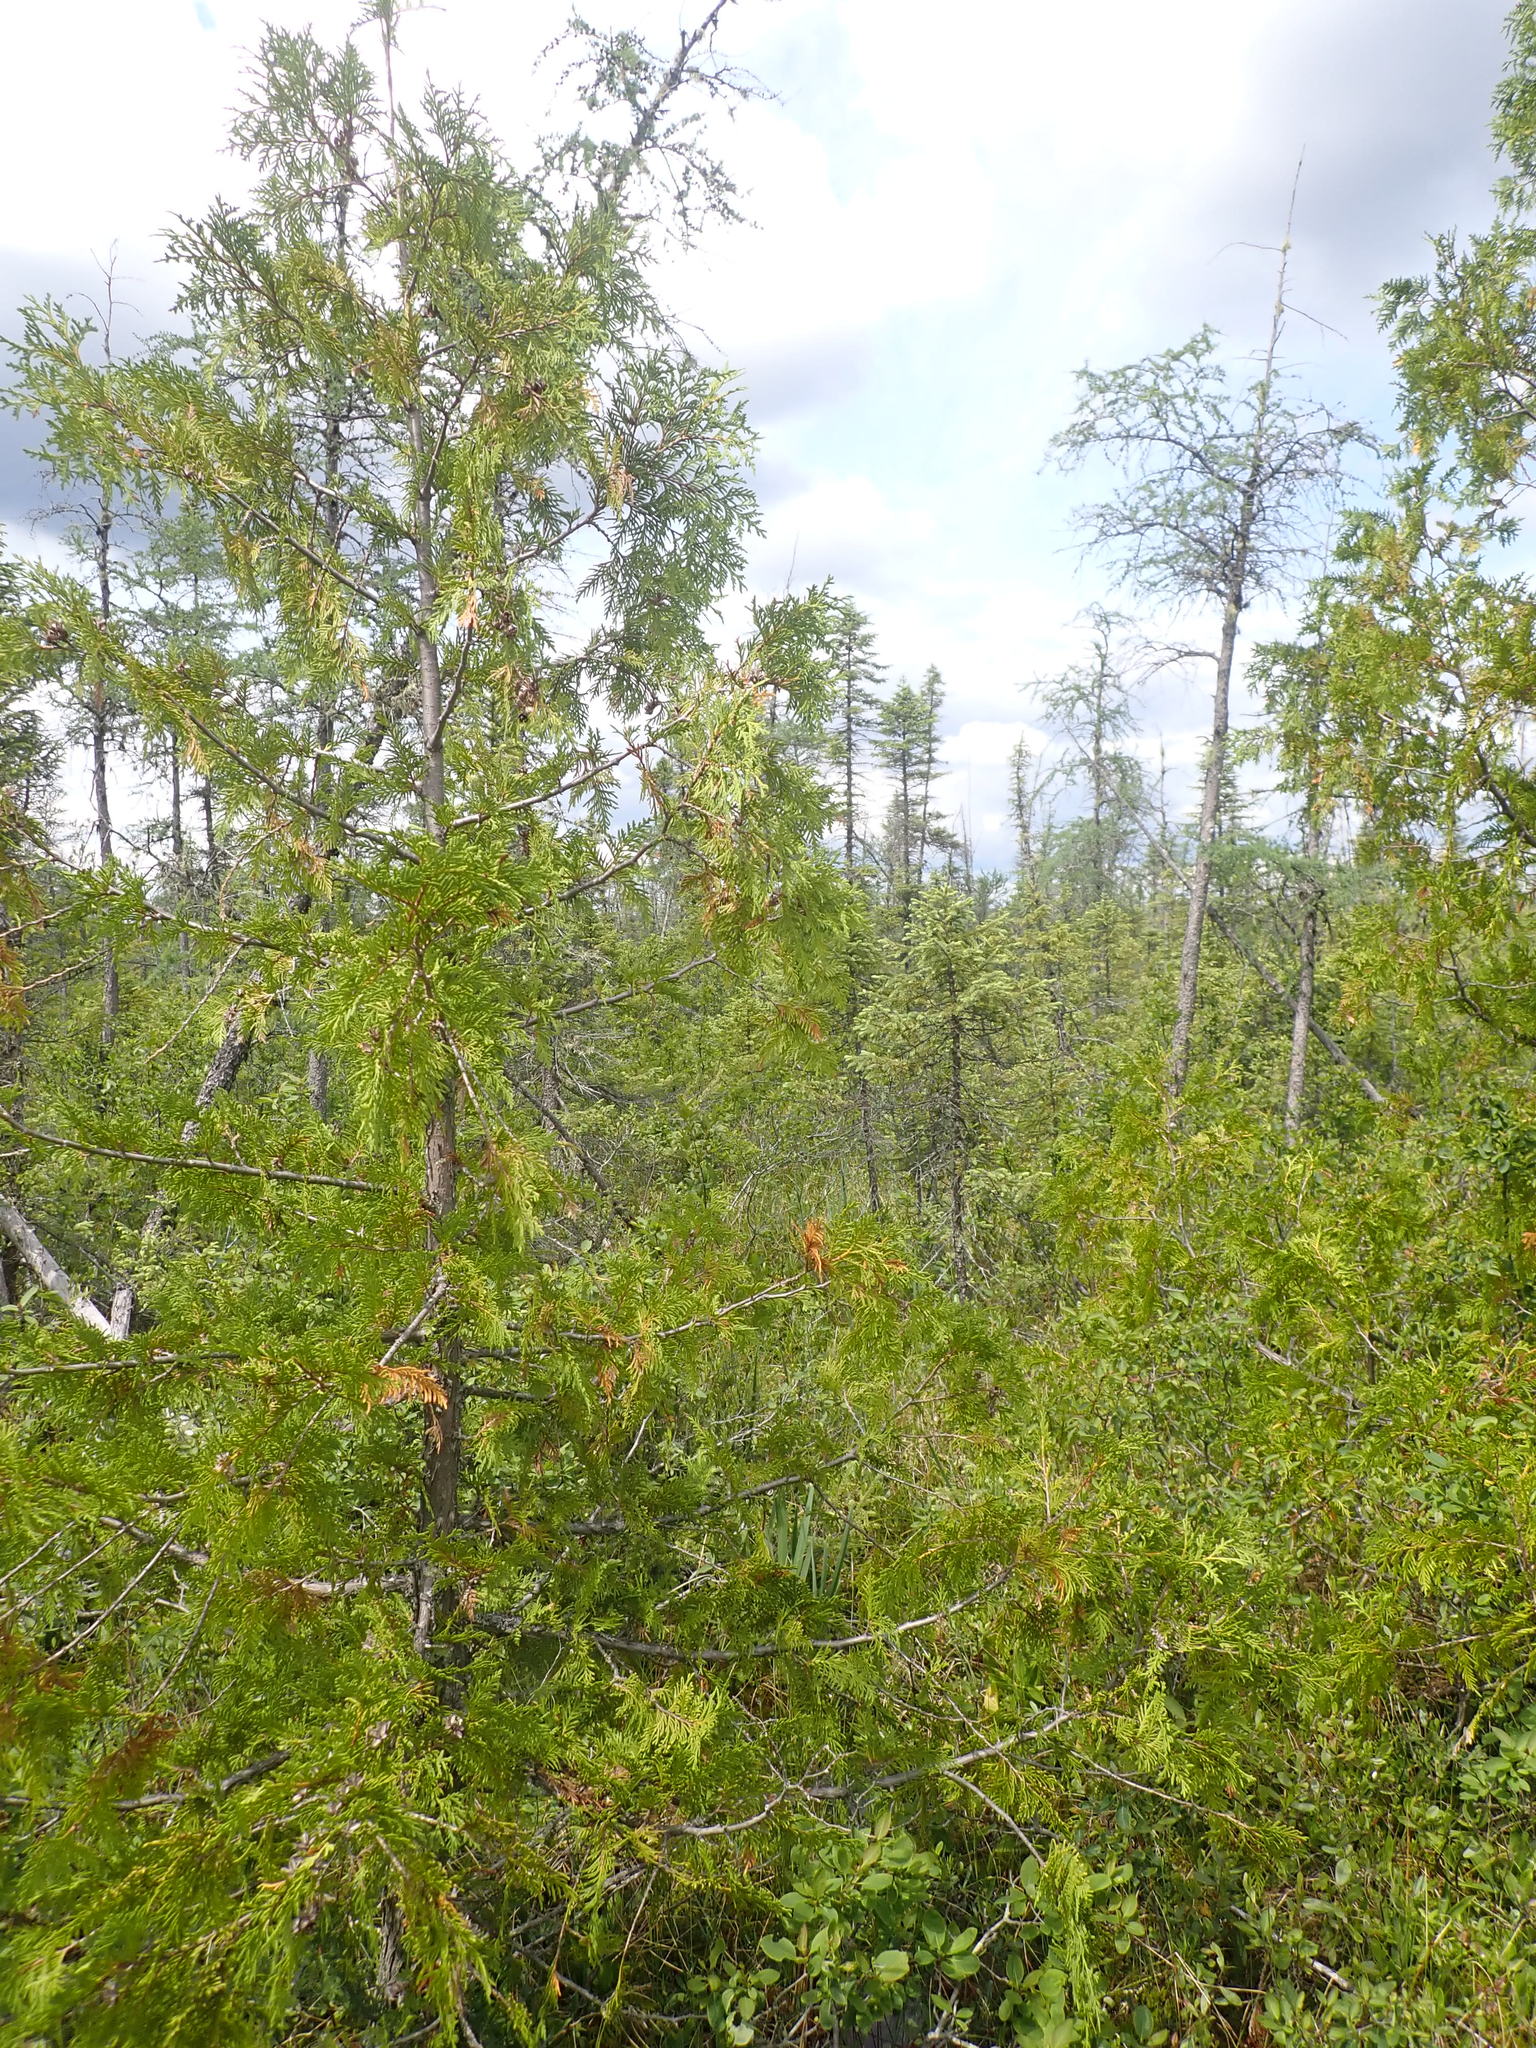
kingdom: Plantae
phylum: Tracheophyta
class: Pinopsida
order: Pinales
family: Cupressaceae
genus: Thuja
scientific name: Thuja occidentalis
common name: Northern white-cedar
